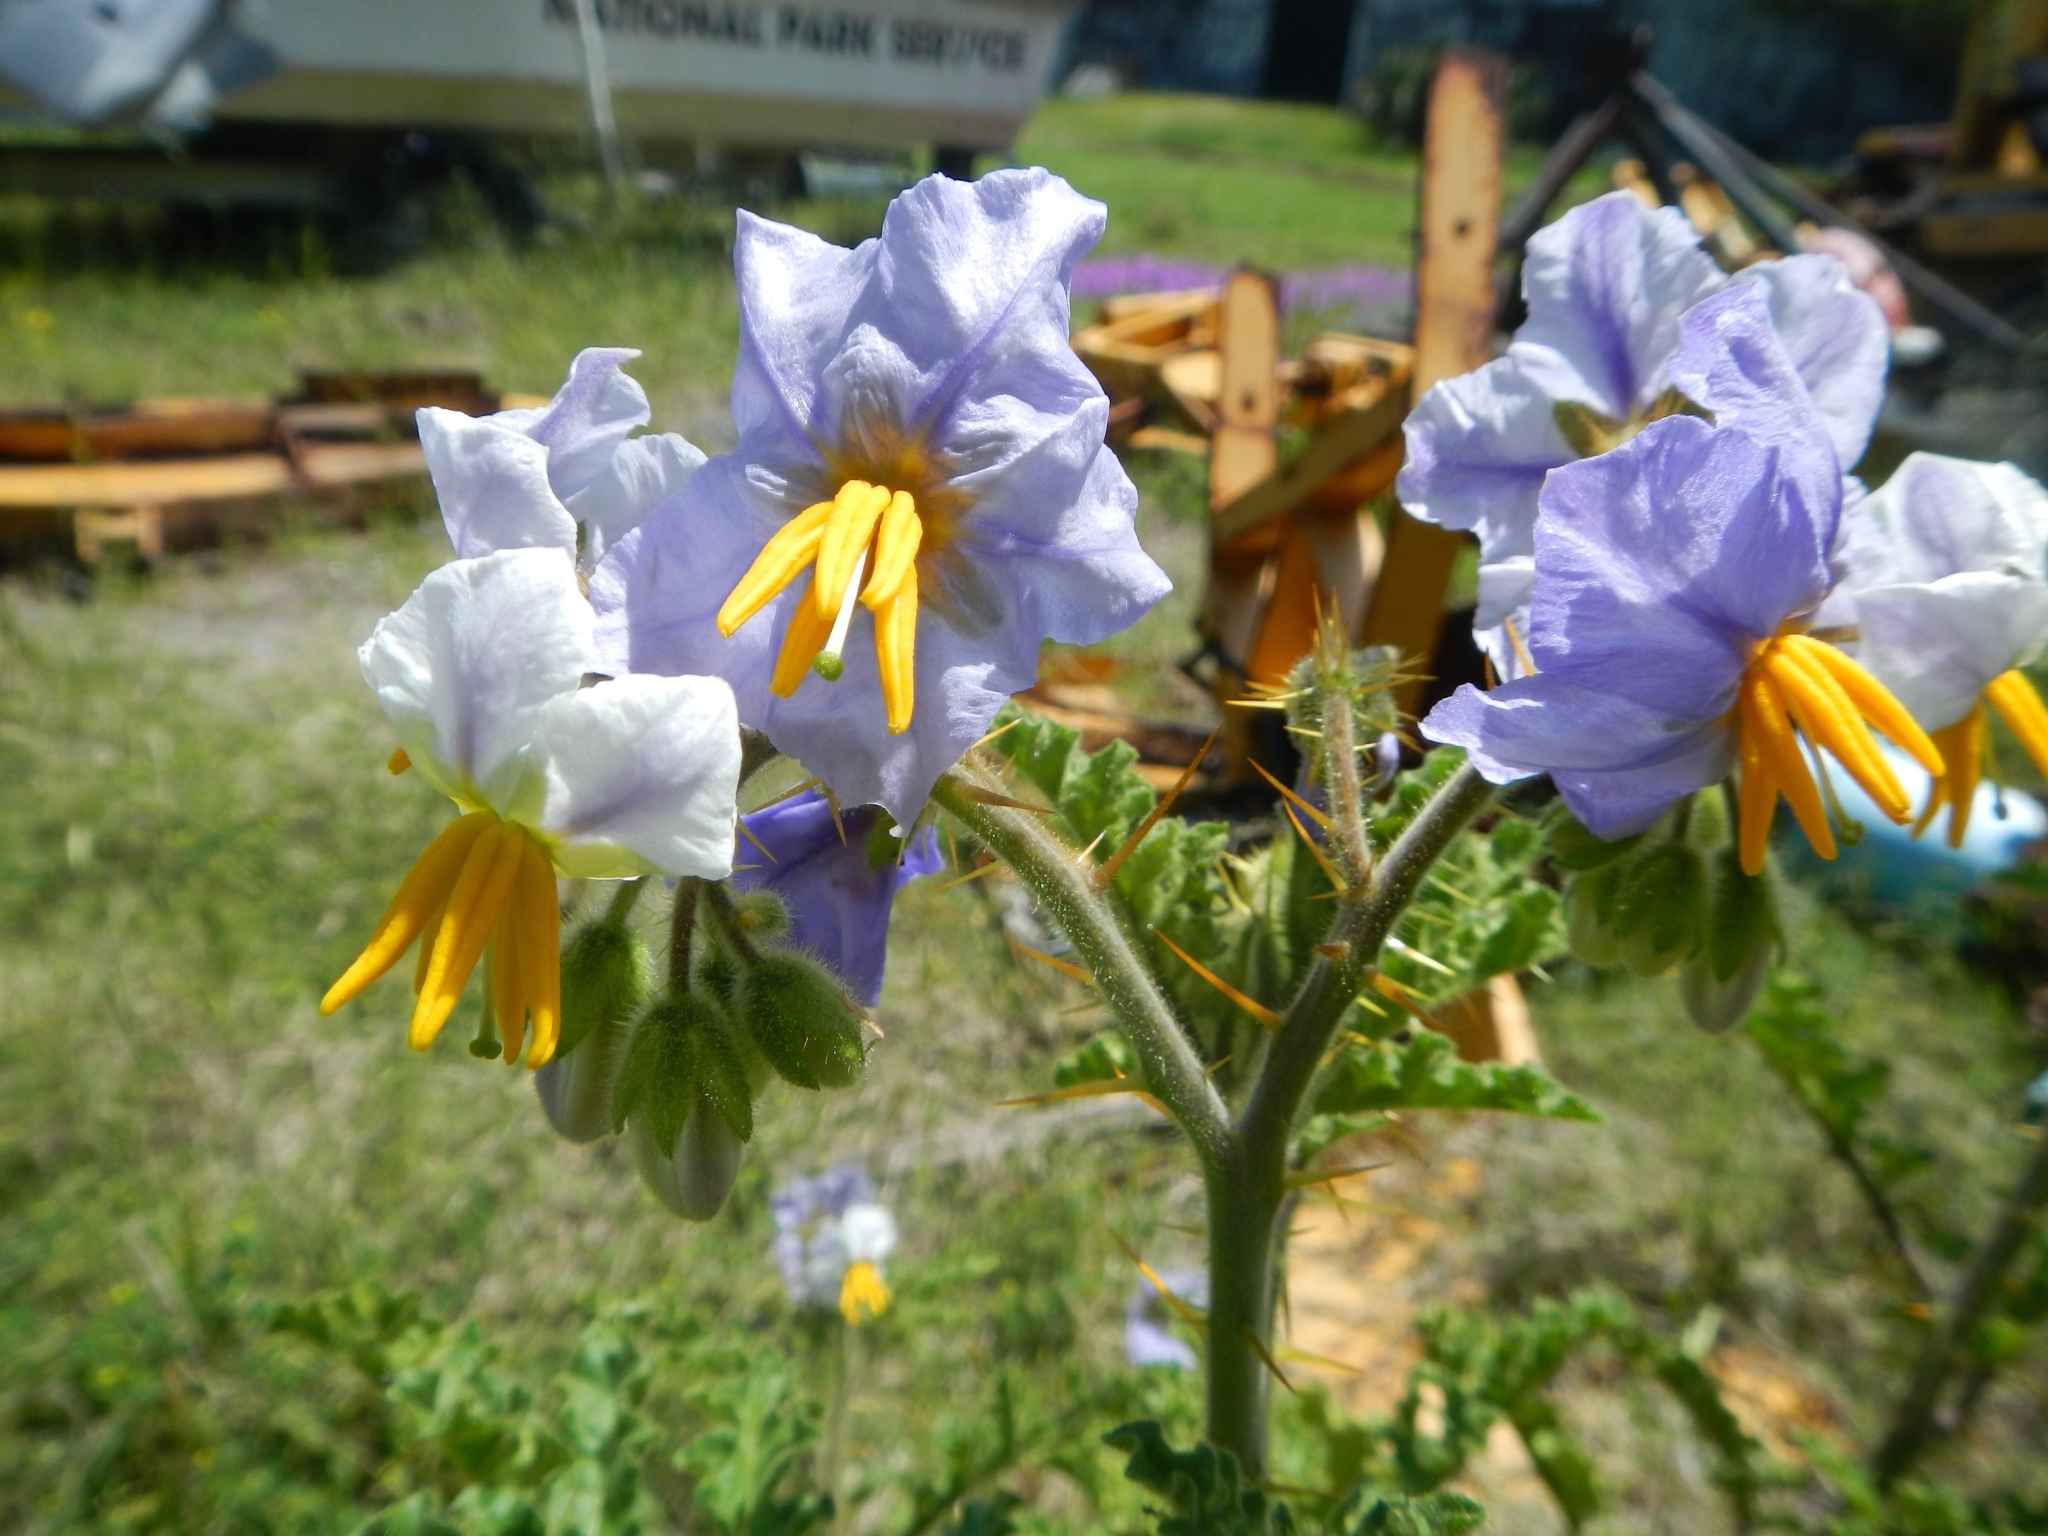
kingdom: Plantae
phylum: Tracheophyta
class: Magnoliopsida
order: Solanales
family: Solanaceae
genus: Solanum
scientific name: Solanum sisymbriifolium
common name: Red buffalo-bur
